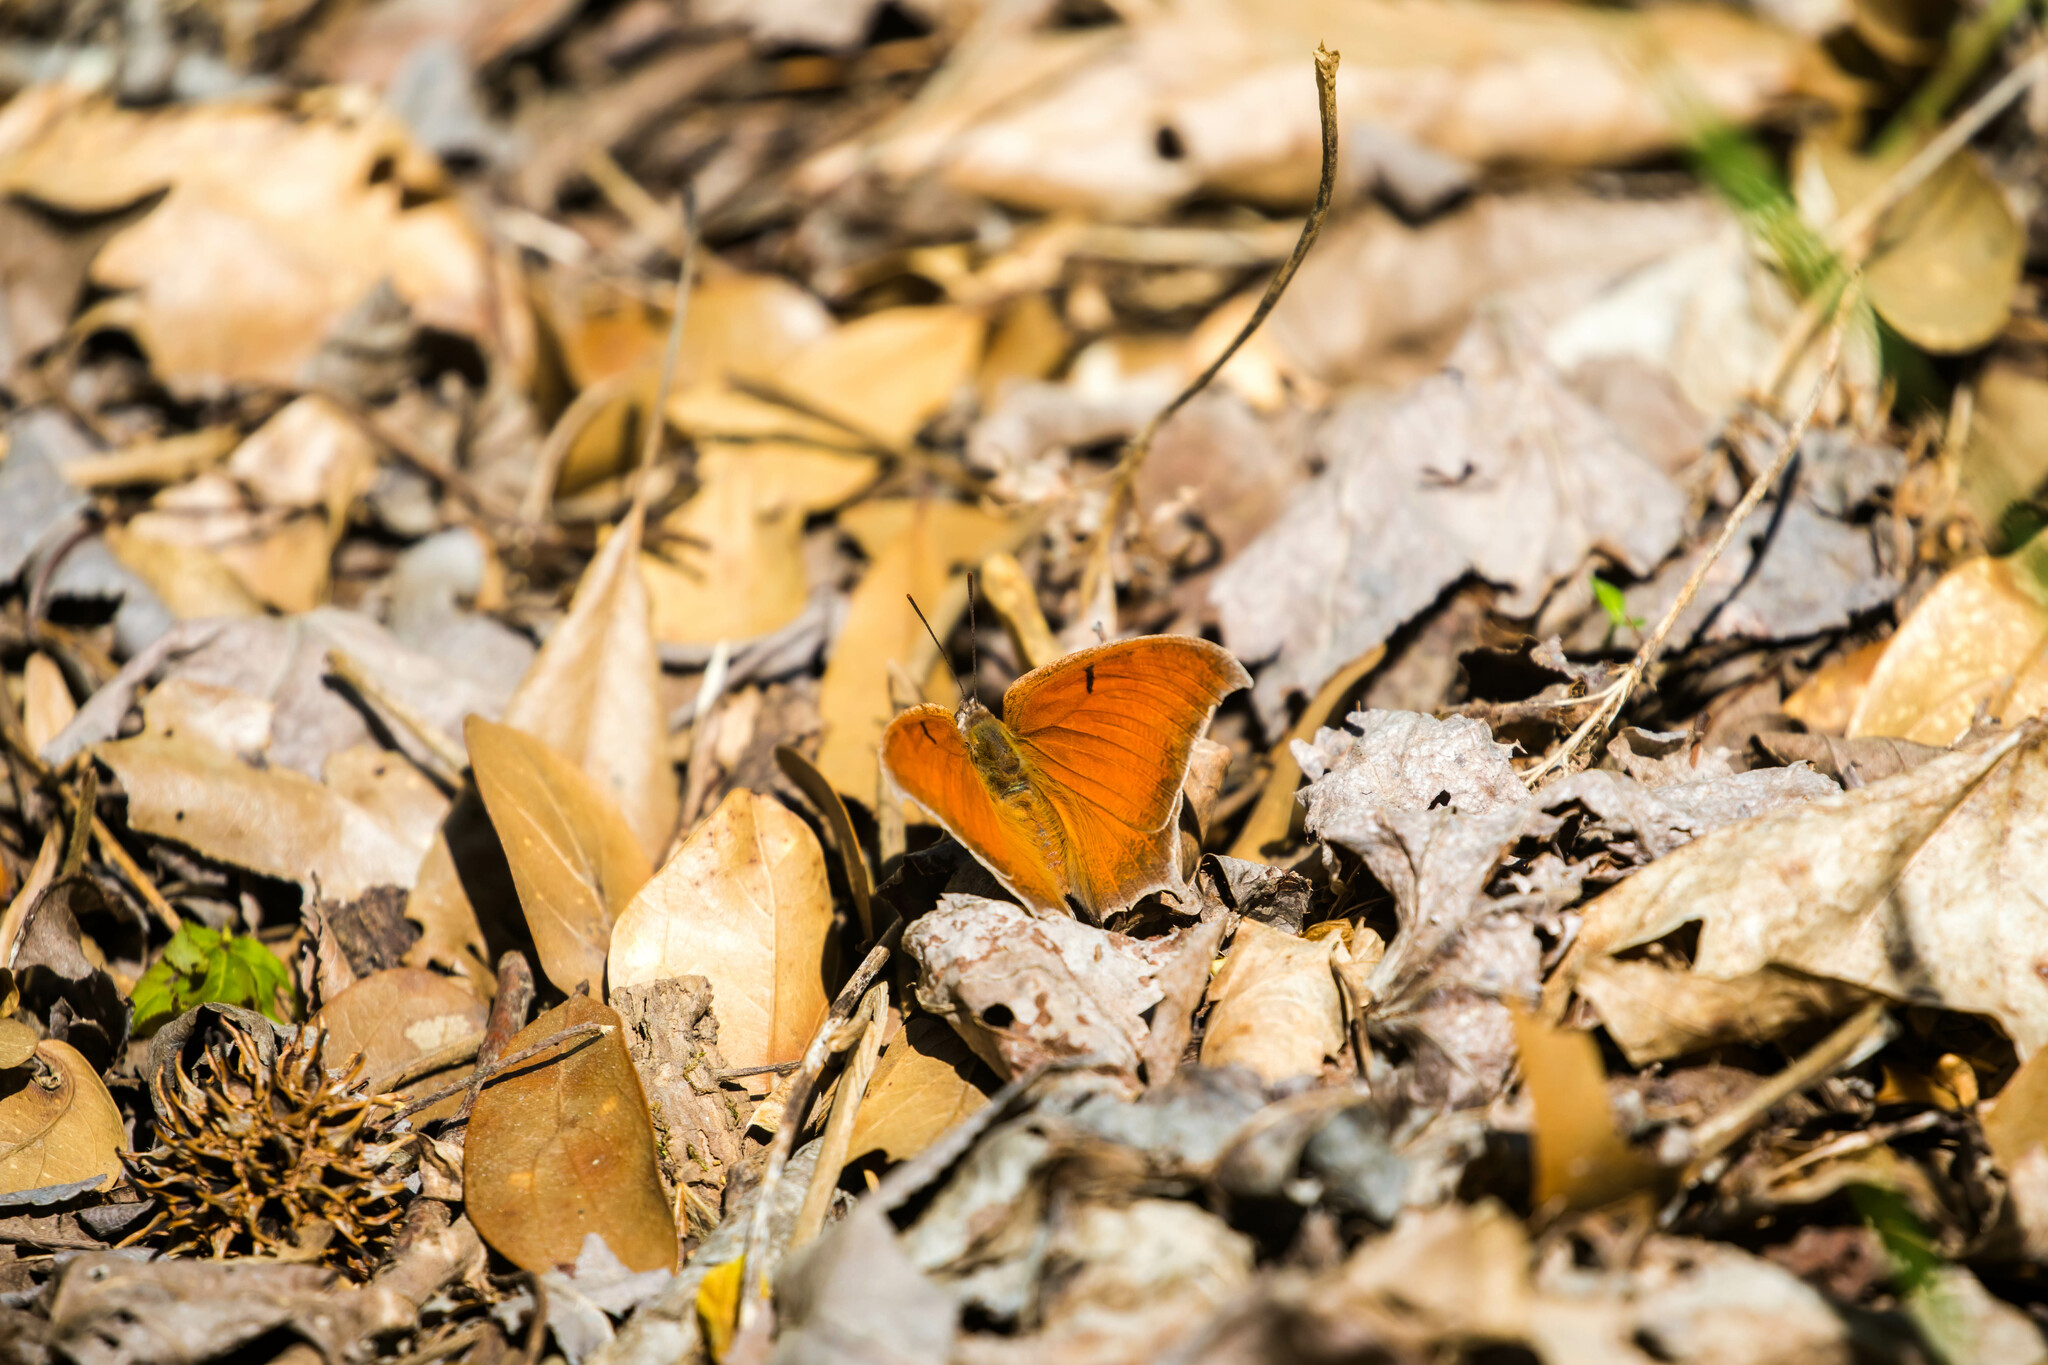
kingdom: Animalia
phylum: Arthropoda
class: Insecta
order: Lepidoptera
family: Nymphalidae
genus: Anaea
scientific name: Anaea andria
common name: Goatweed leafwing
